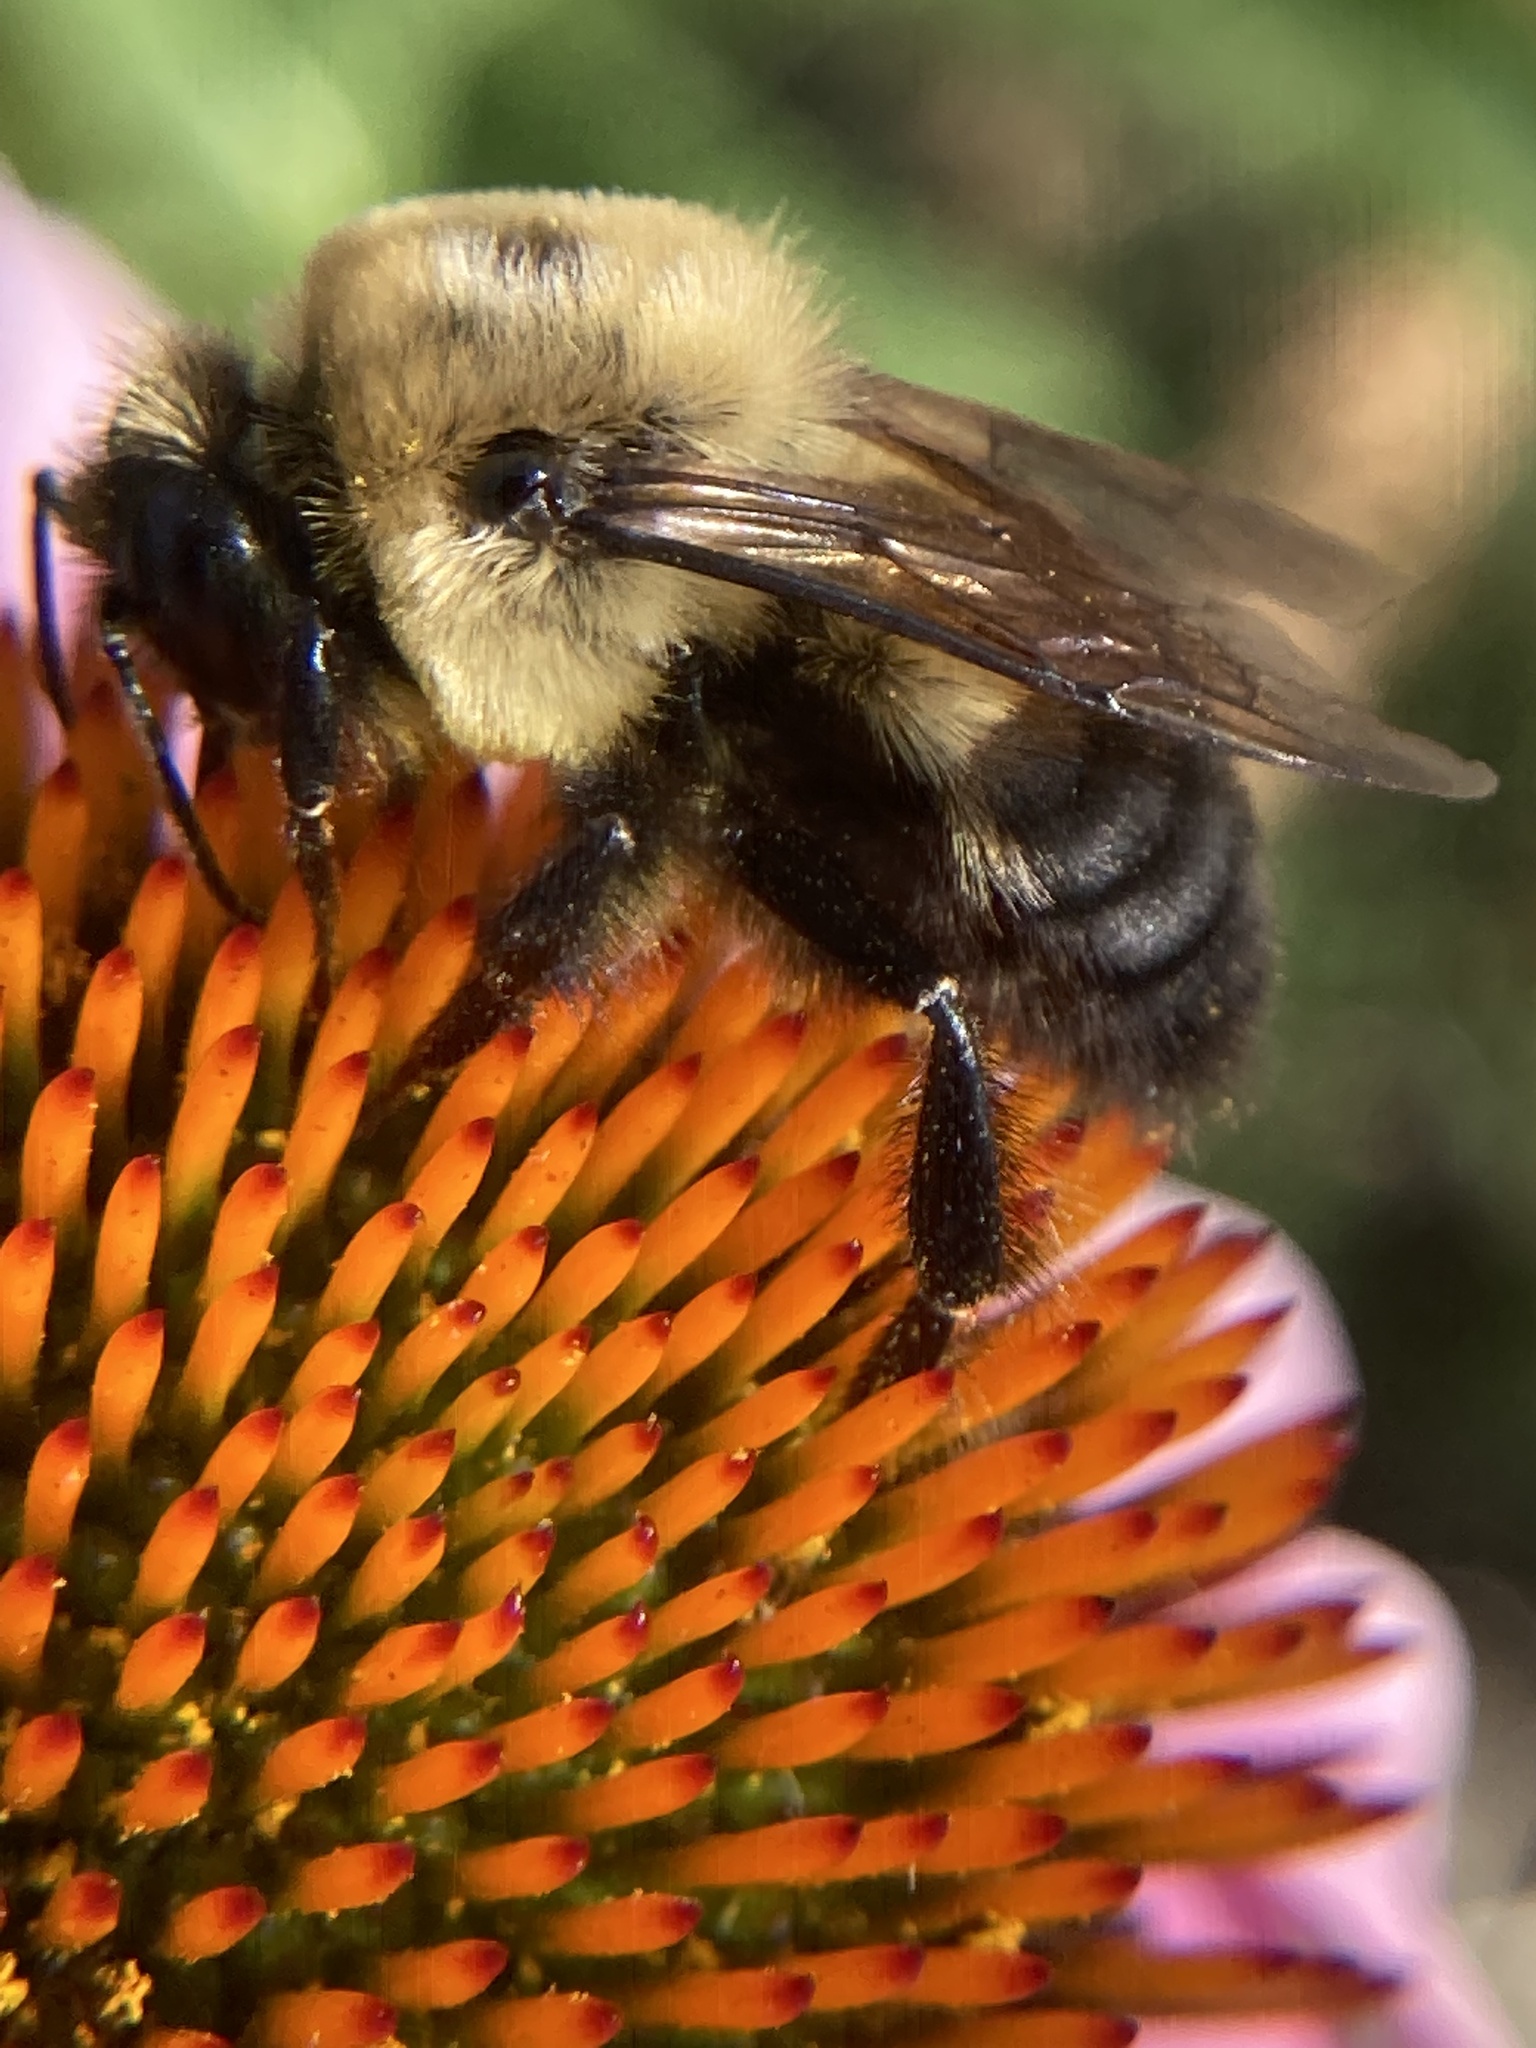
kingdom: Animalia
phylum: Arthropoda
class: Insecta
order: Hymenoptera
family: Apidae
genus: Bombus
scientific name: Bombus griseocollis
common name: Brown-belted bumble bee
